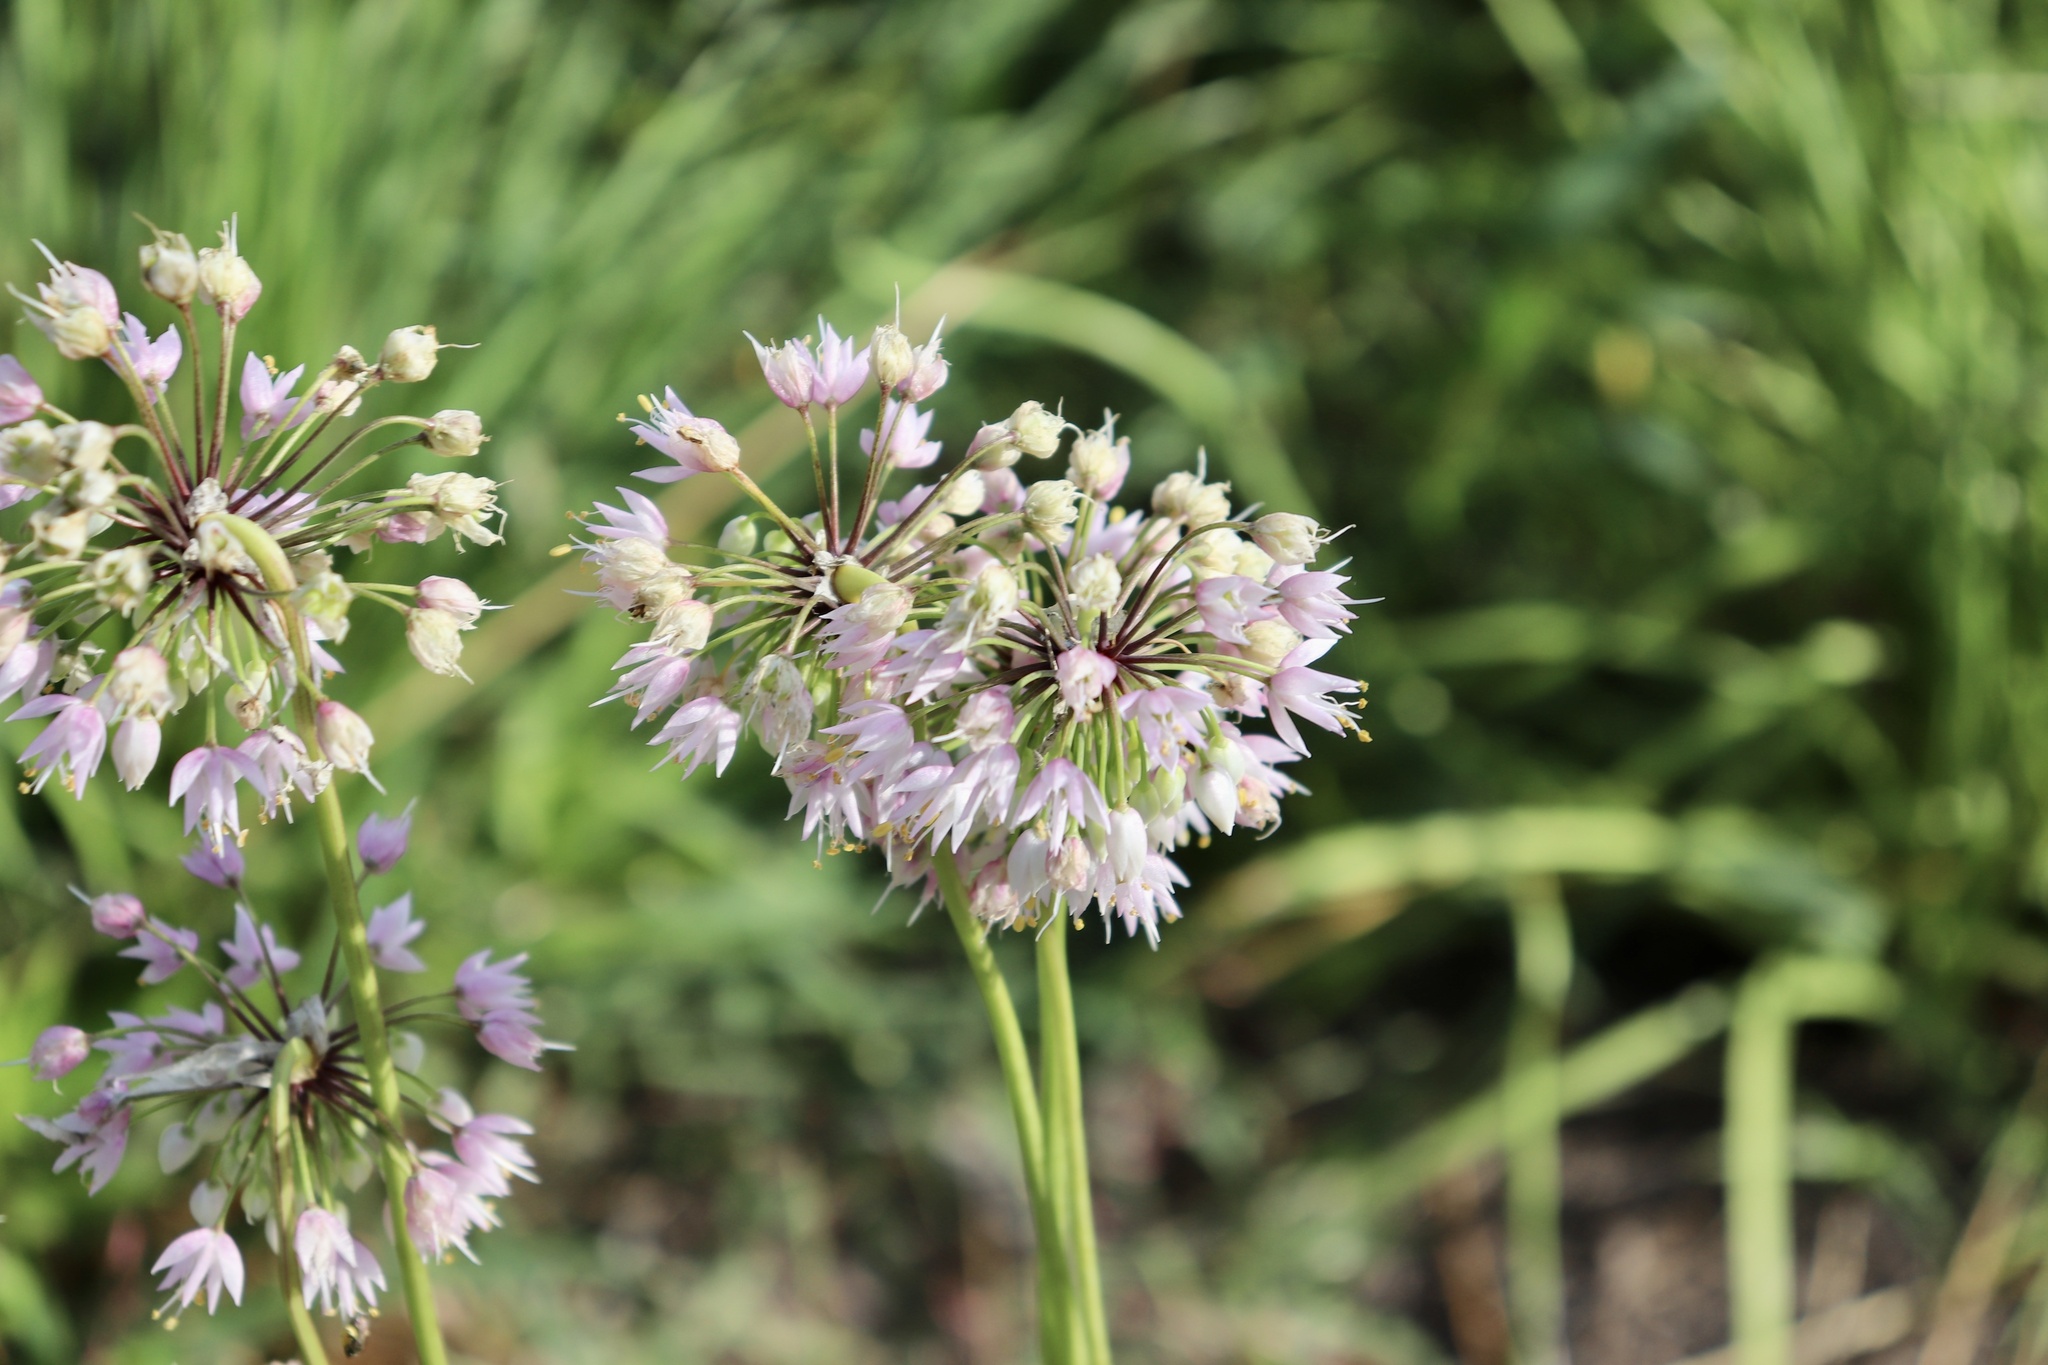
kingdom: Plantae
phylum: Tracheophyta
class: Liliopsida
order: Asparagales
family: Amaryllidaceae
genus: Allium
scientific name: Allium cernuum
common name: Nodding onion
